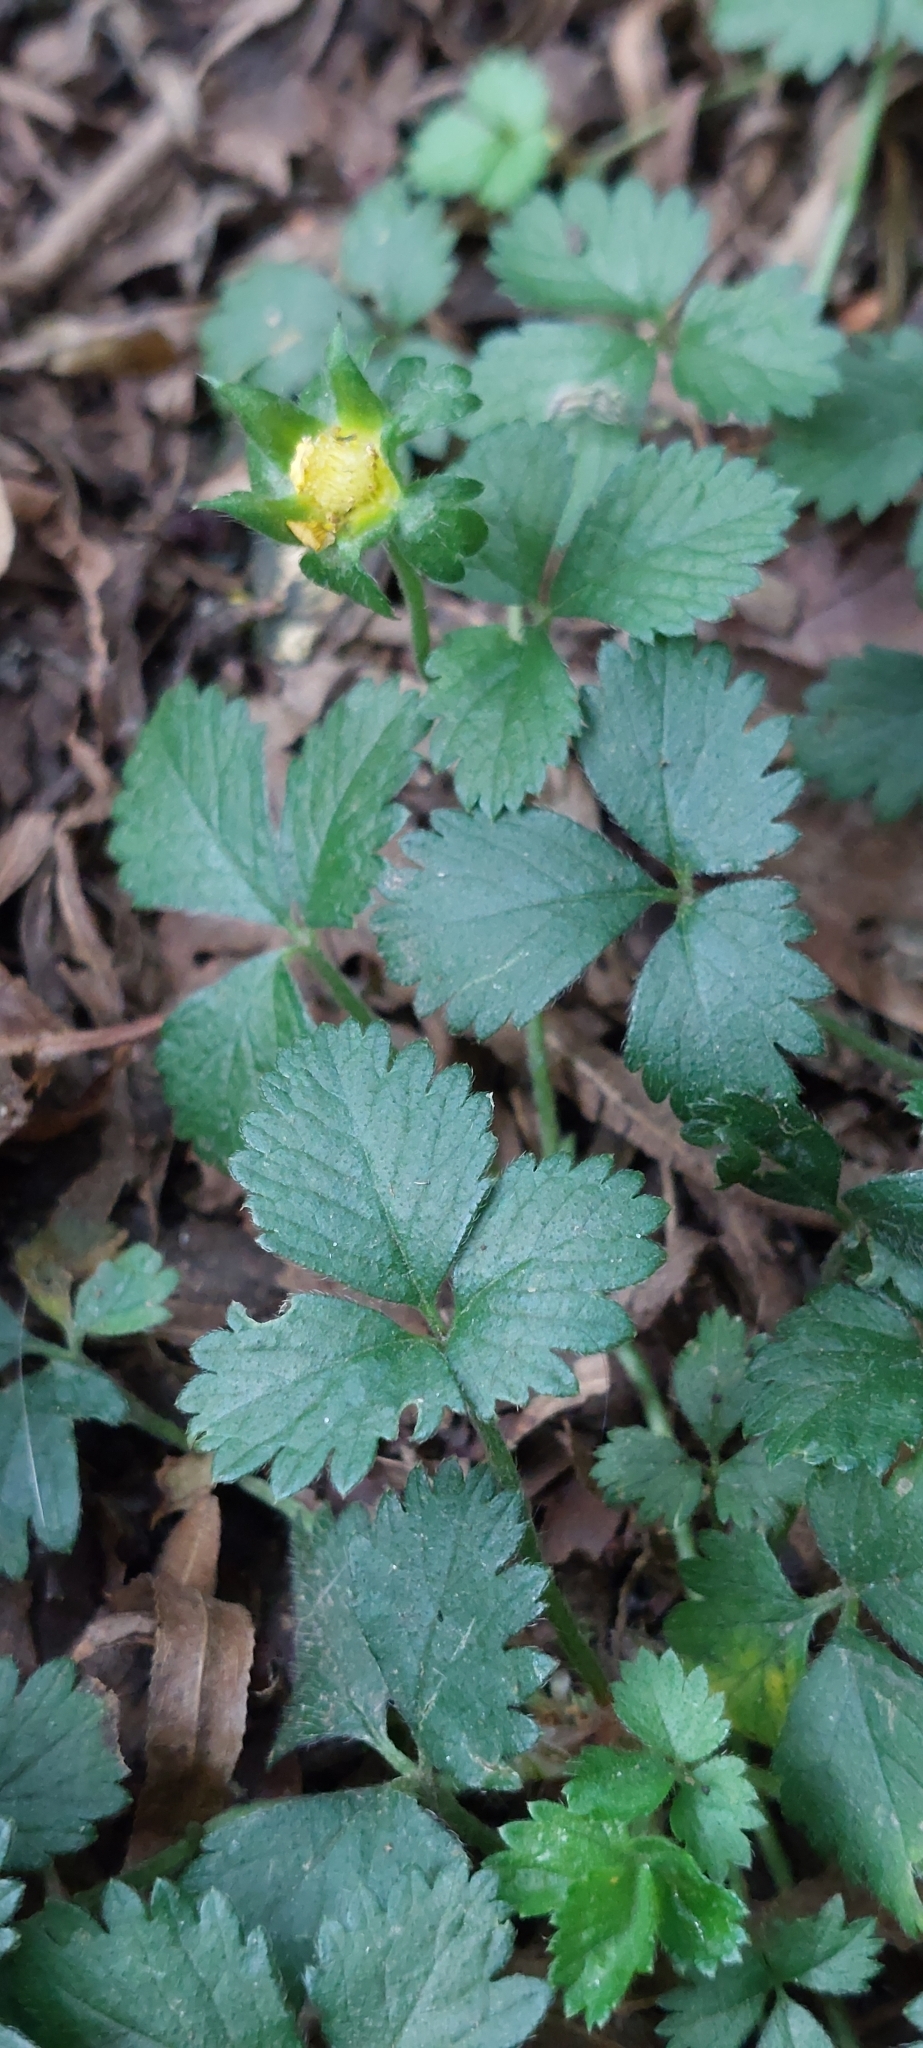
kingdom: Plantae
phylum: Tracheophyta
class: Magnoliopsida
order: Rosales
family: Rosaceae
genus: Potentilla
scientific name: Potentilla indica
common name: Yellow-flowered strawberry
